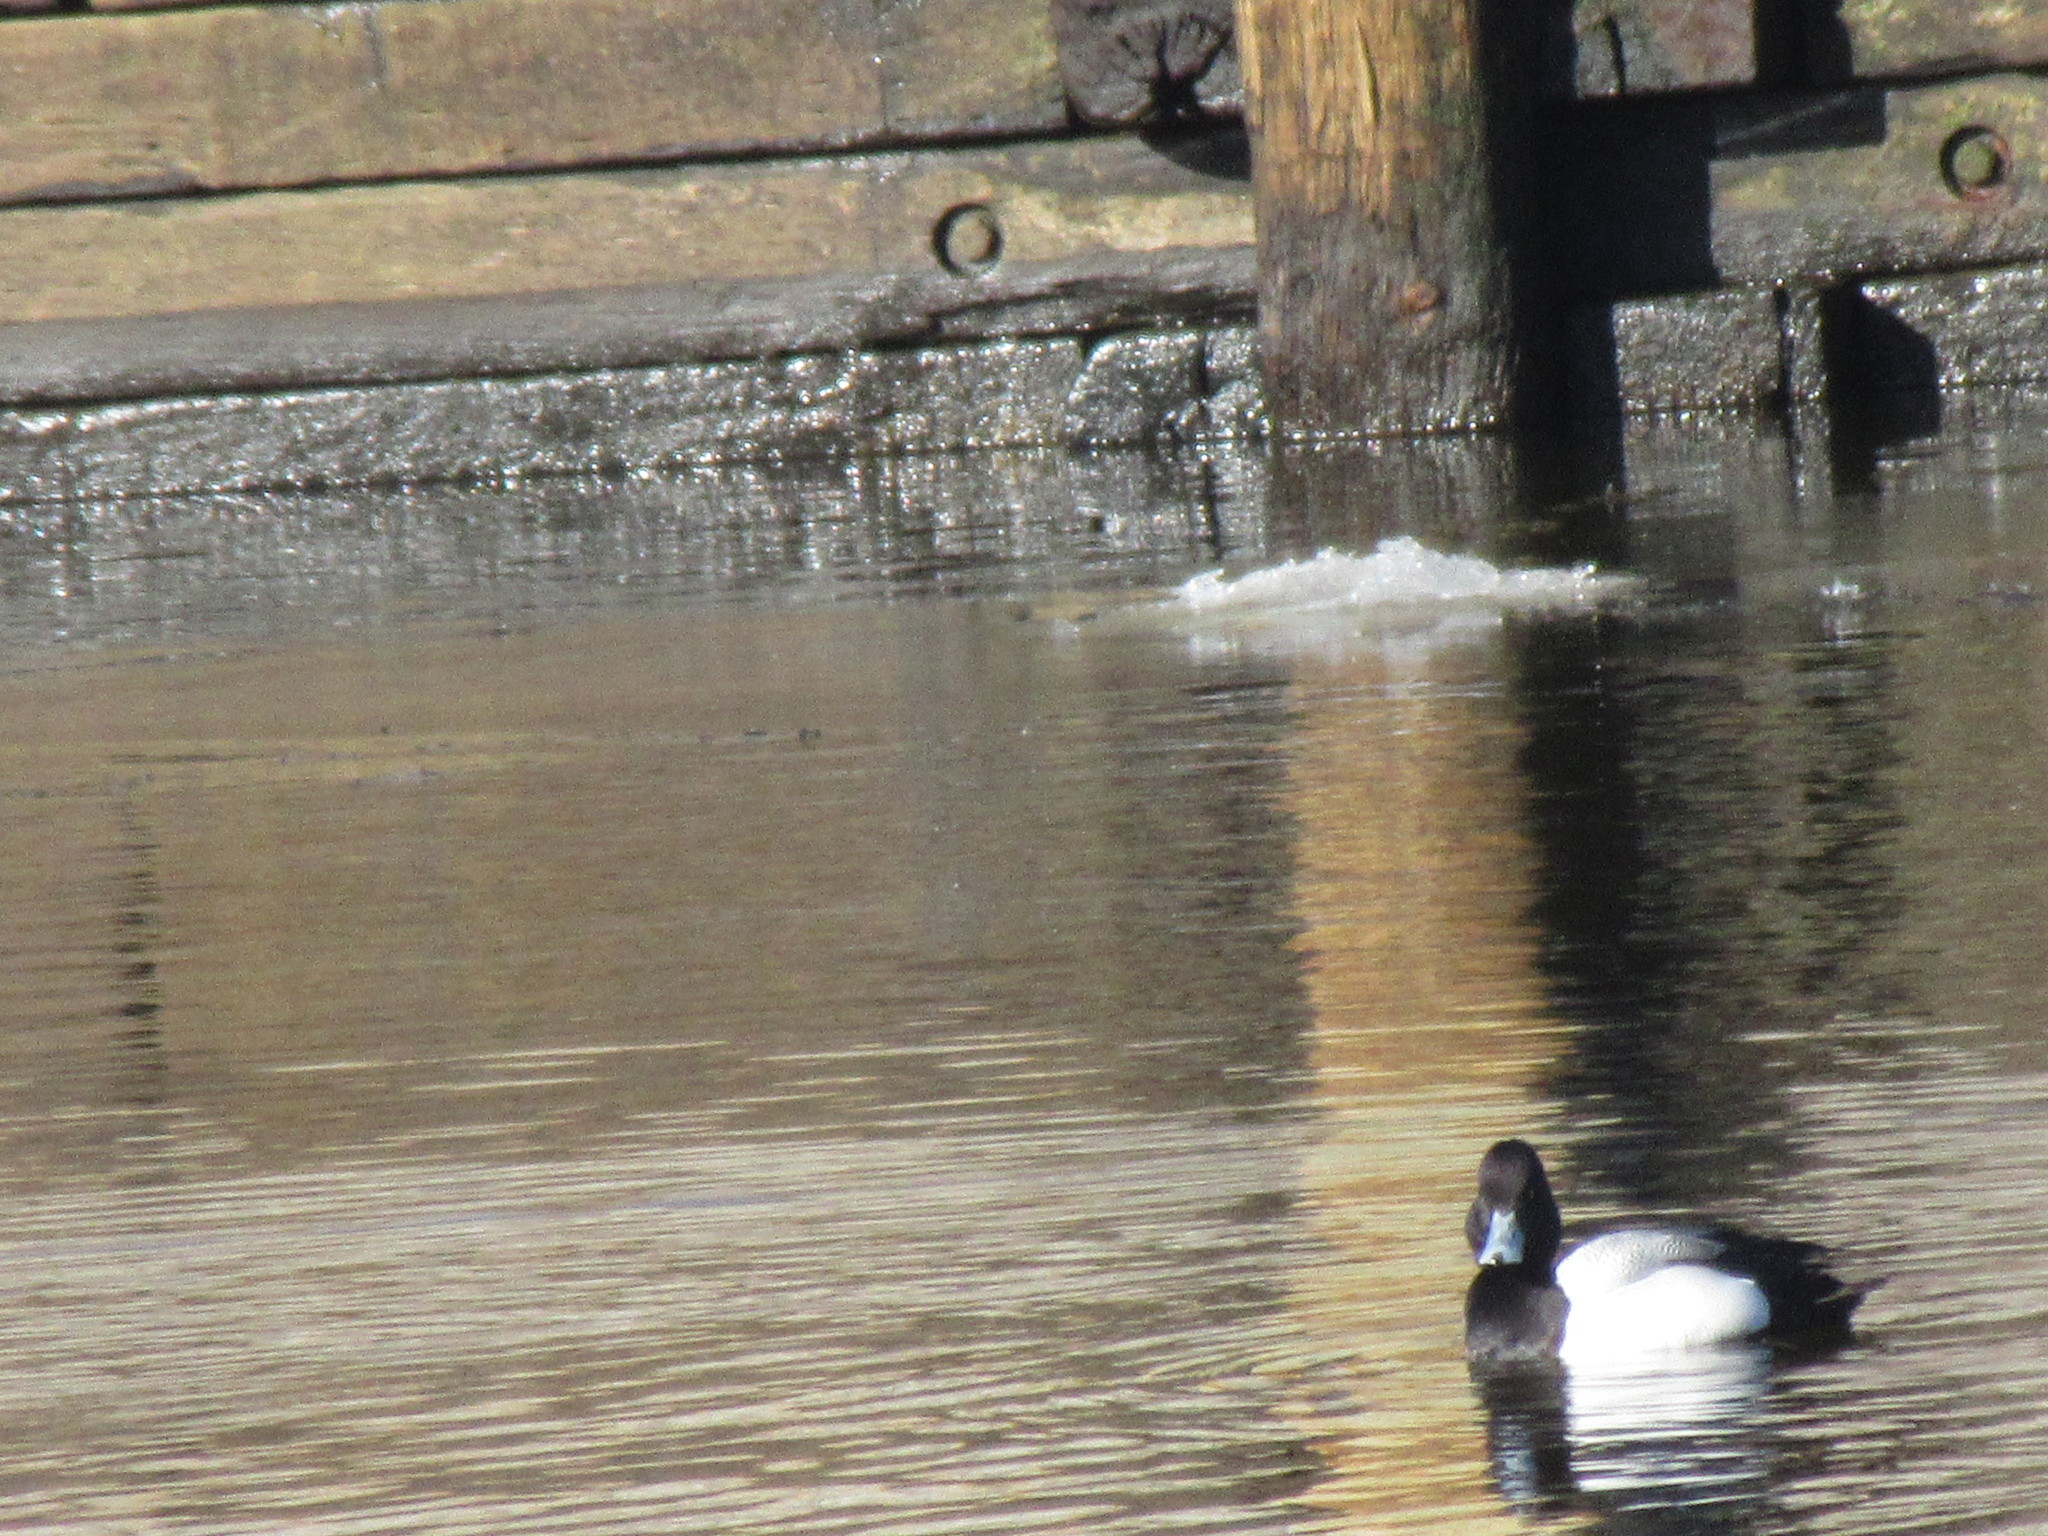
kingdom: Animalia
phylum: Chordata
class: Aves
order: Anseriformes
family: Anatidae
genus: Aythya
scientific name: Aythya affinis
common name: Lesser scaup
